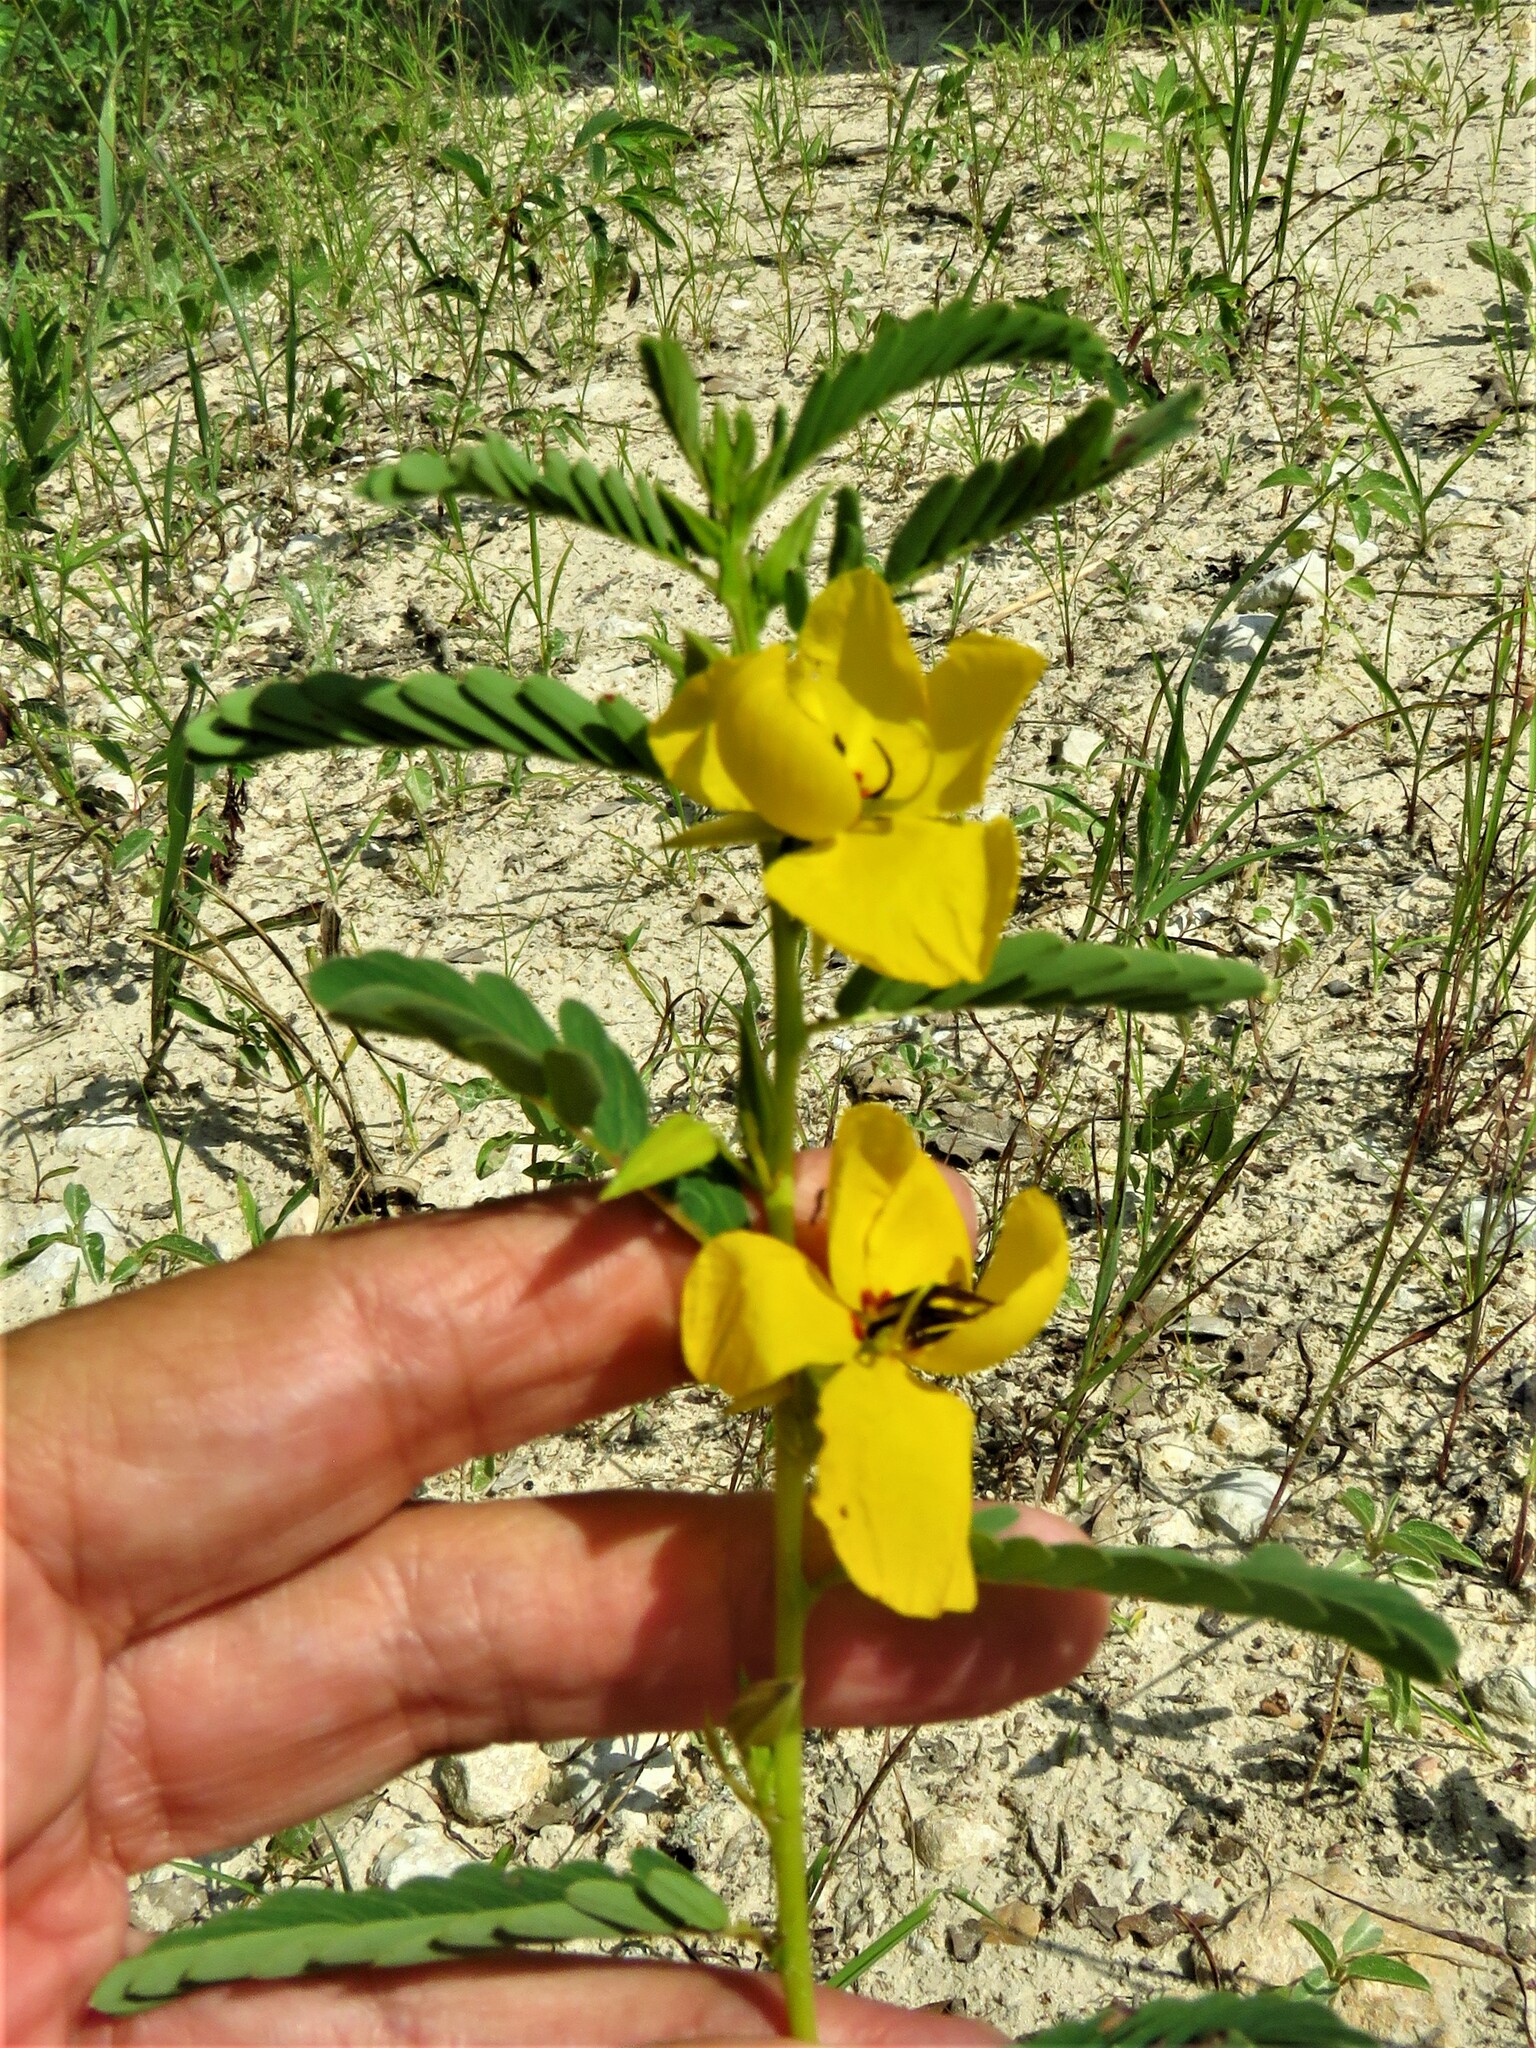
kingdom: Plantae
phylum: Tracheophyta
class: Magnoliopsida
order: Fabales
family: Fabaceae
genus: Chamaecrista
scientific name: Chamaecrista fasciculata
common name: Golden cassia
